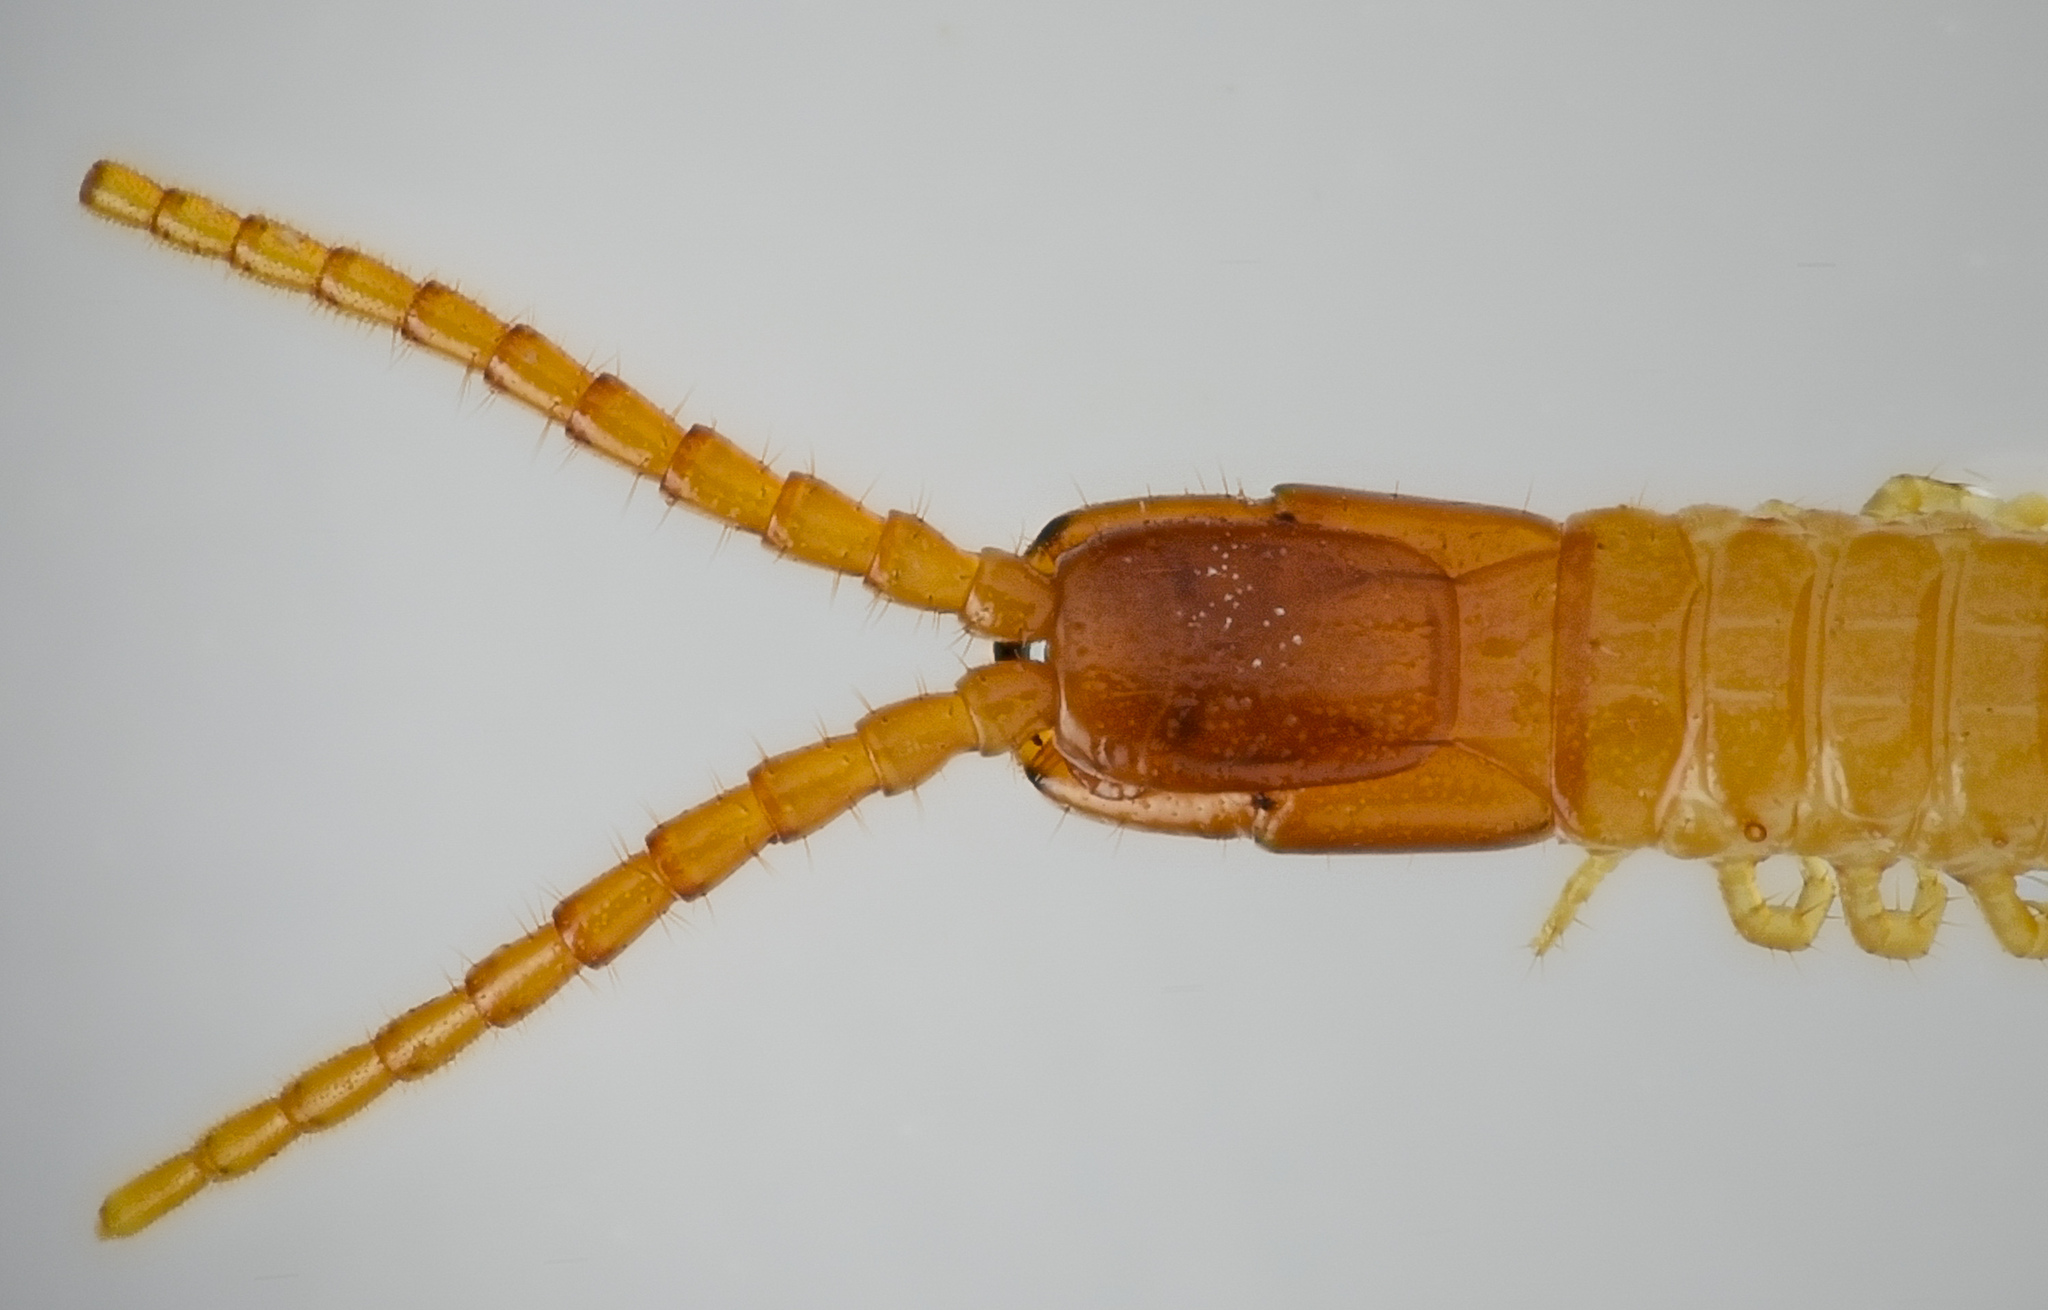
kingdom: Animalia
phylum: Arthropoda
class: Chilopoda
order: Geophilomorpha
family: Geophilidae
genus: Taiyuna
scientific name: Taiyuna isantus
